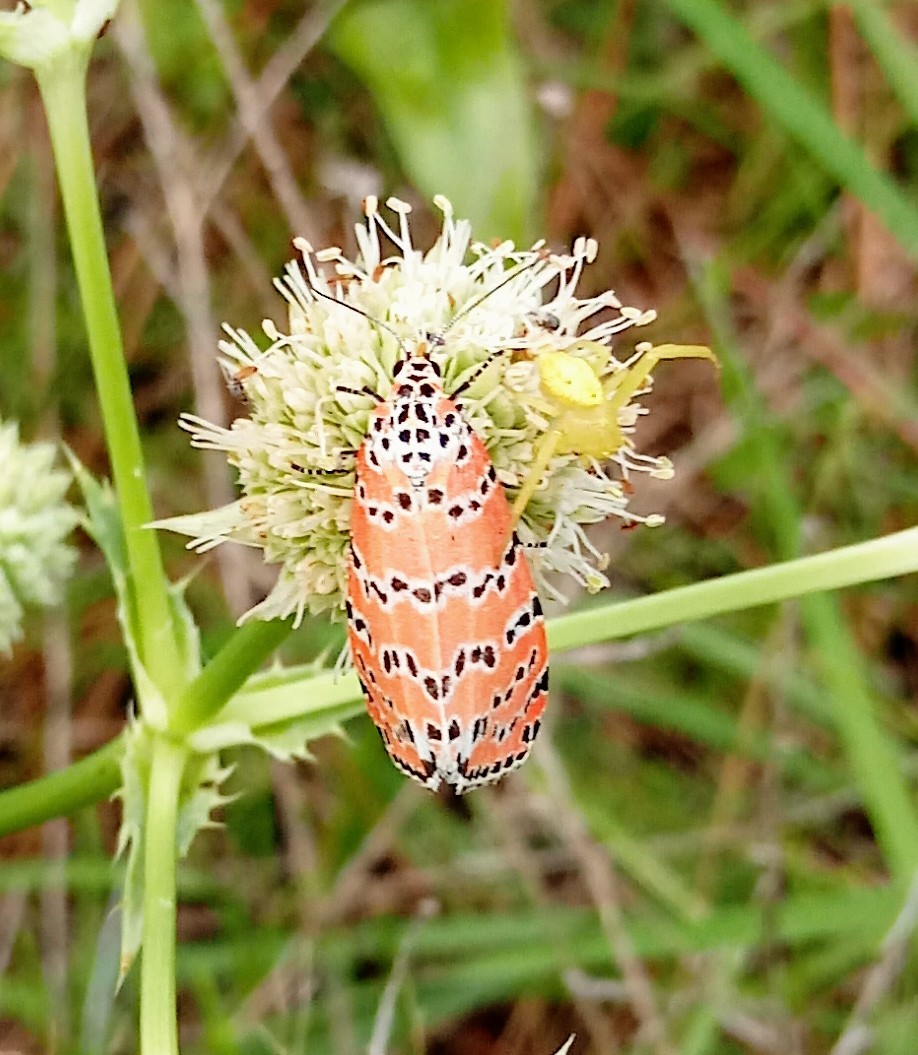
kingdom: Animalia
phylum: Arthropoda
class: Insecta
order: Lepidoptera
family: Erebidae
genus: Utetheisa
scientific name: Utetheisa ornatrix
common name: Beautiful utetheisa
